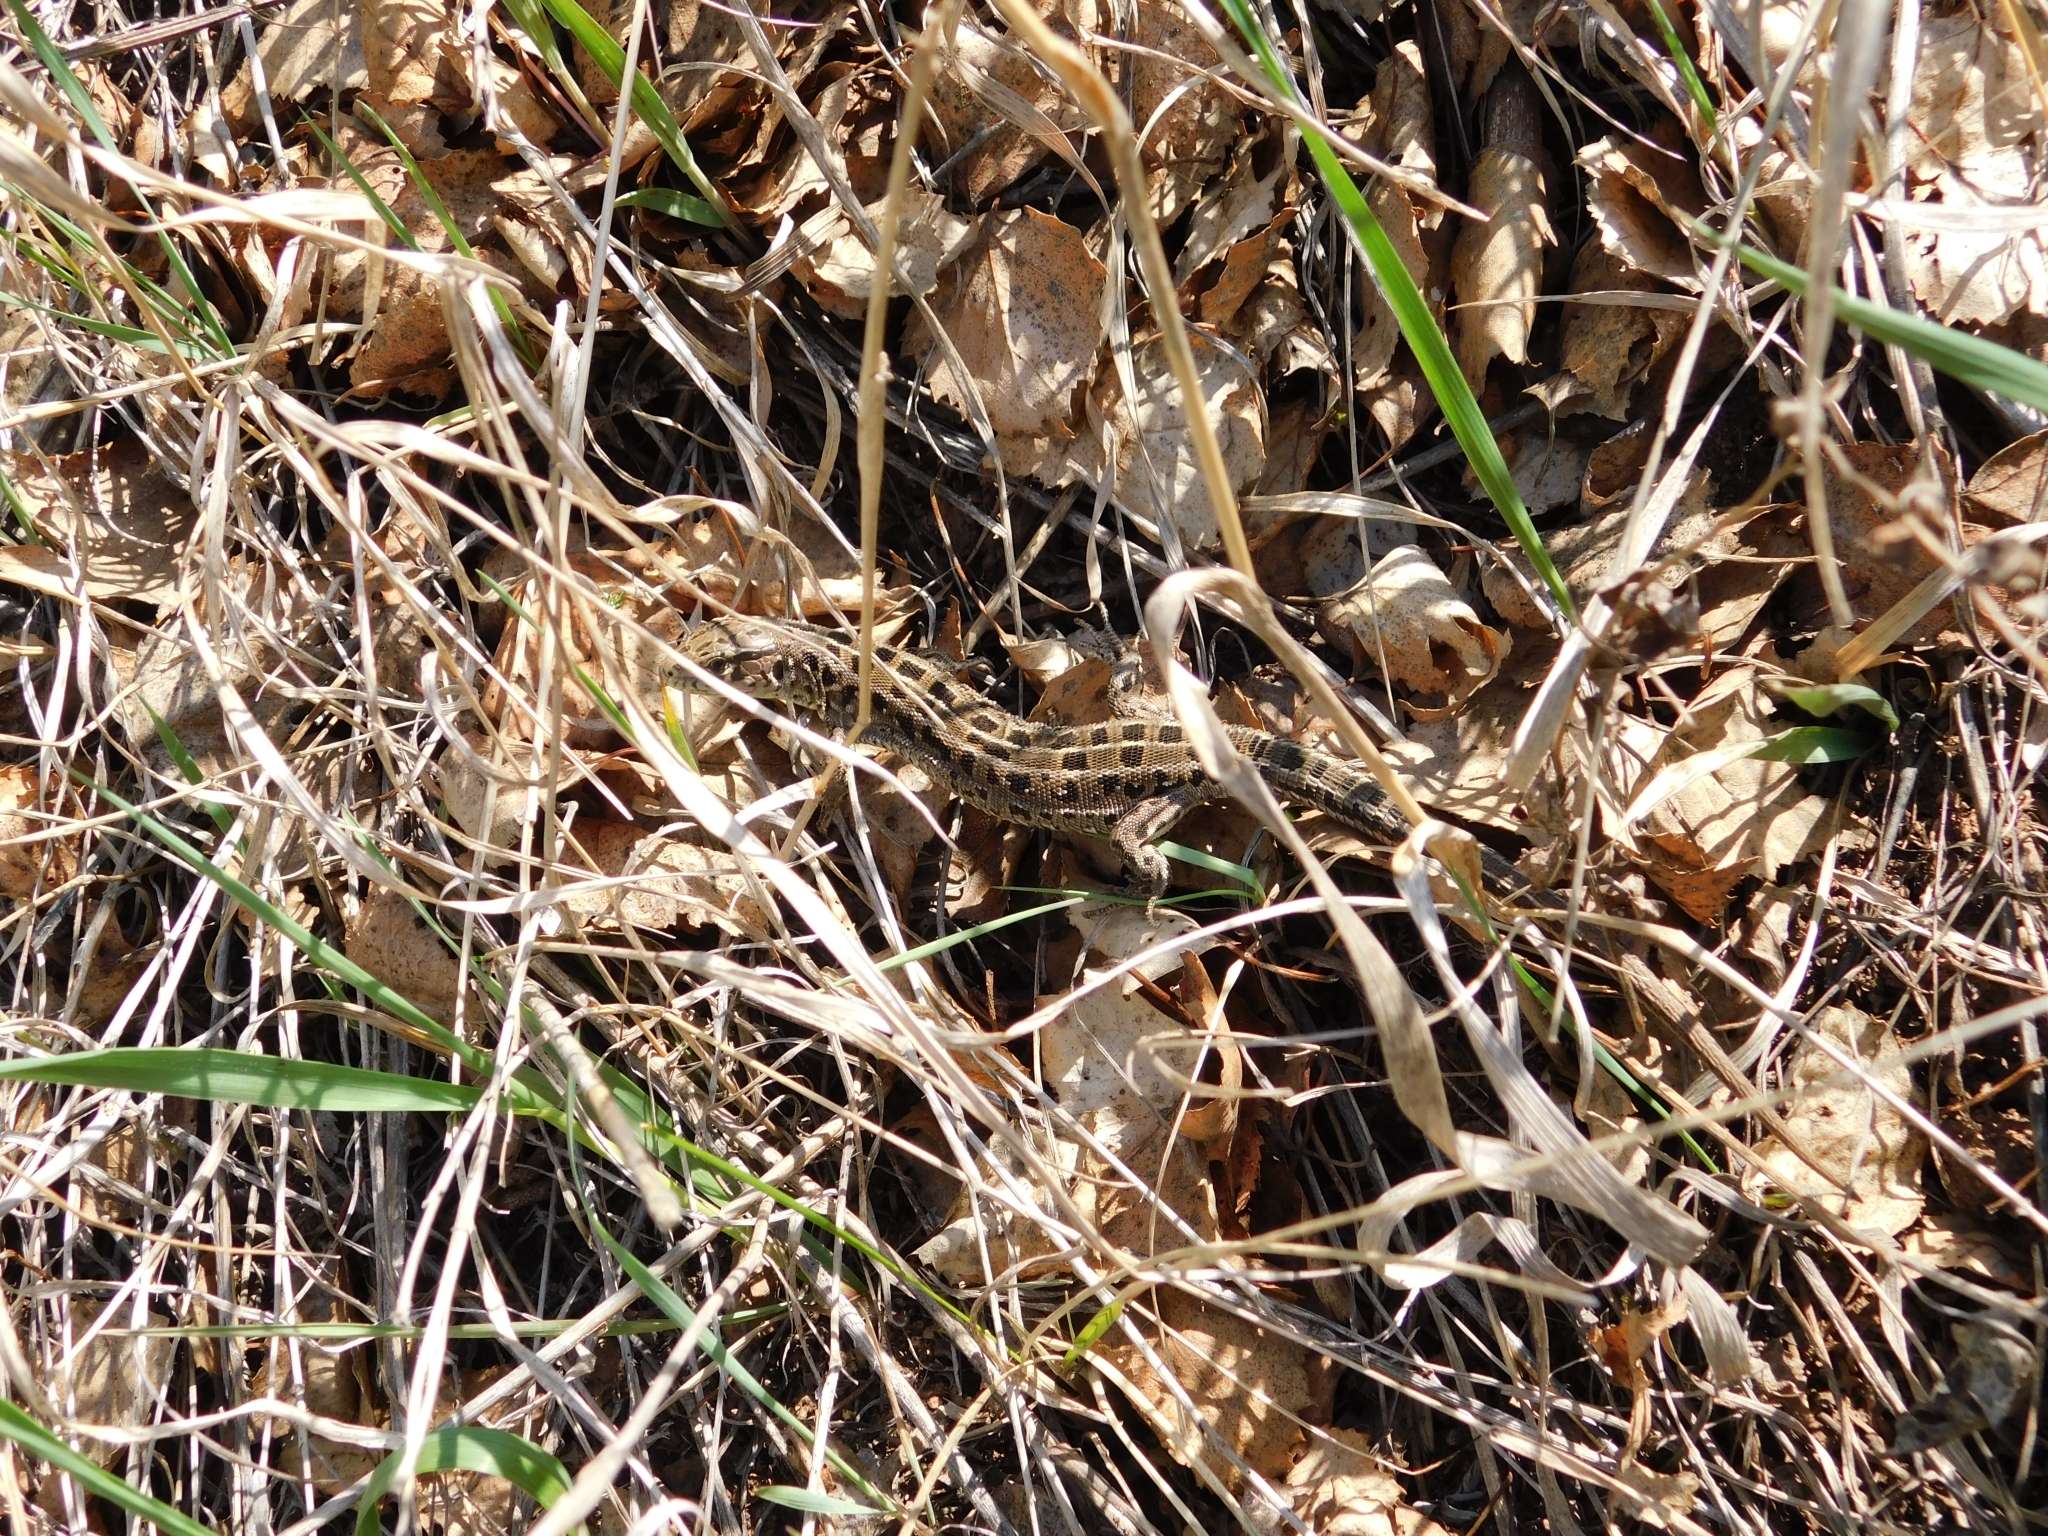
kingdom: Animalia
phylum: Chordata
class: Squamata
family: Lacertidae
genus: Lacerta
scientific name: Lacerta agilis
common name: Sand lizard
